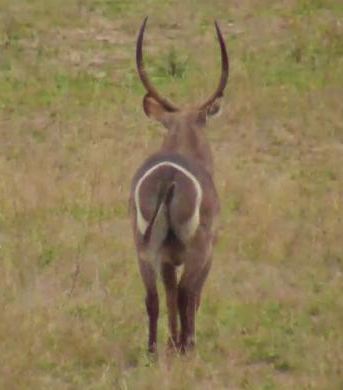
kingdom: Animalia
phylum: Chordata
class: Mammalia
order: Artiodactyla
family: Bovidae
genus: Kobus
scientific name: Kobus ellipsiprymnus
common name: Waterbuck
